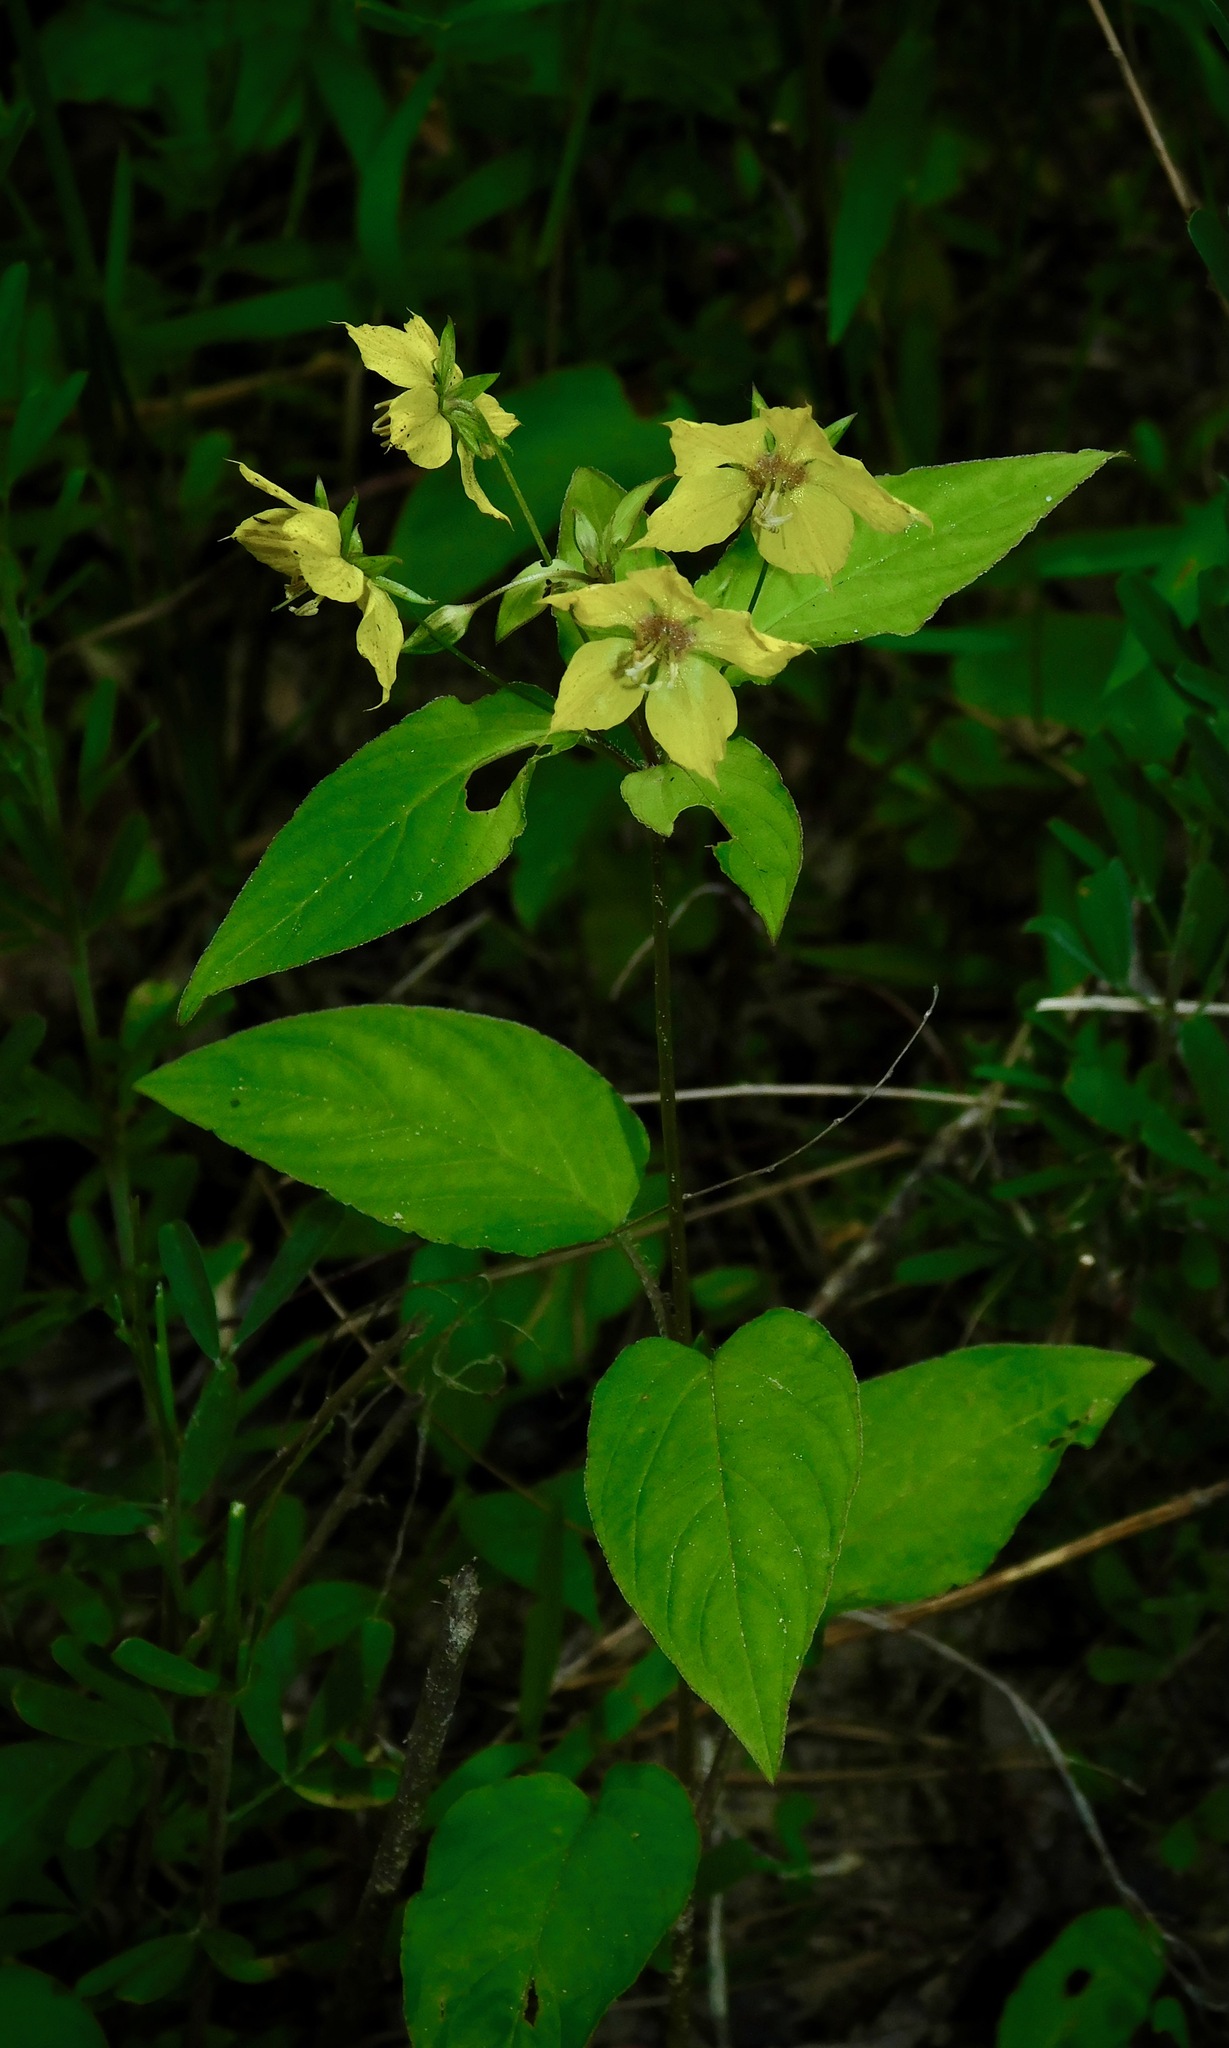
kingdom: Plantae
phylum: Tracheophyta
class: Magnoliopsida
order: Ericales
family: Primulaceae
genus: Lysimachia
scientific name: Lysimachia ciliata
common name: Fringed loosestrife
